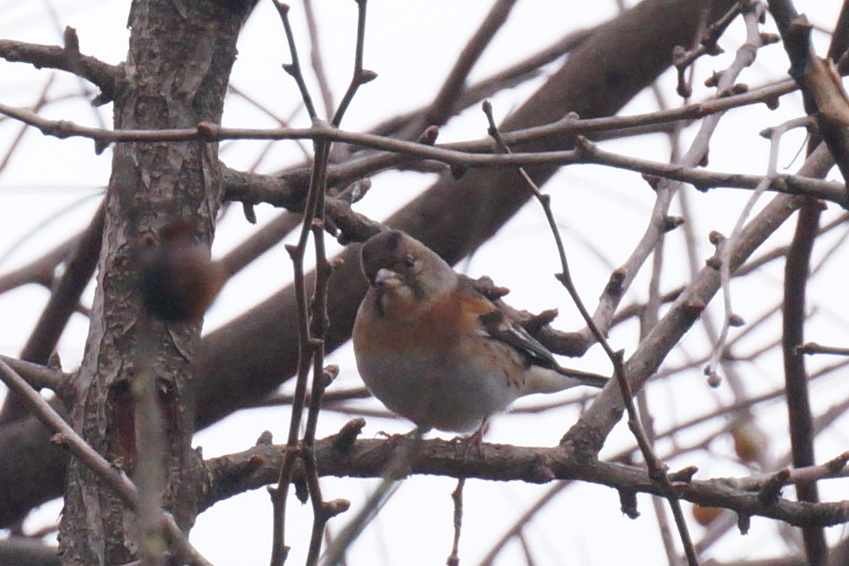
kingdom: Animalia
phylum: Chordata
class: Aves
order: Passeriformes
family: Fringillidae
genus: Fringilla
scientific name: Fringilla montifringilla
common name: Brambling
